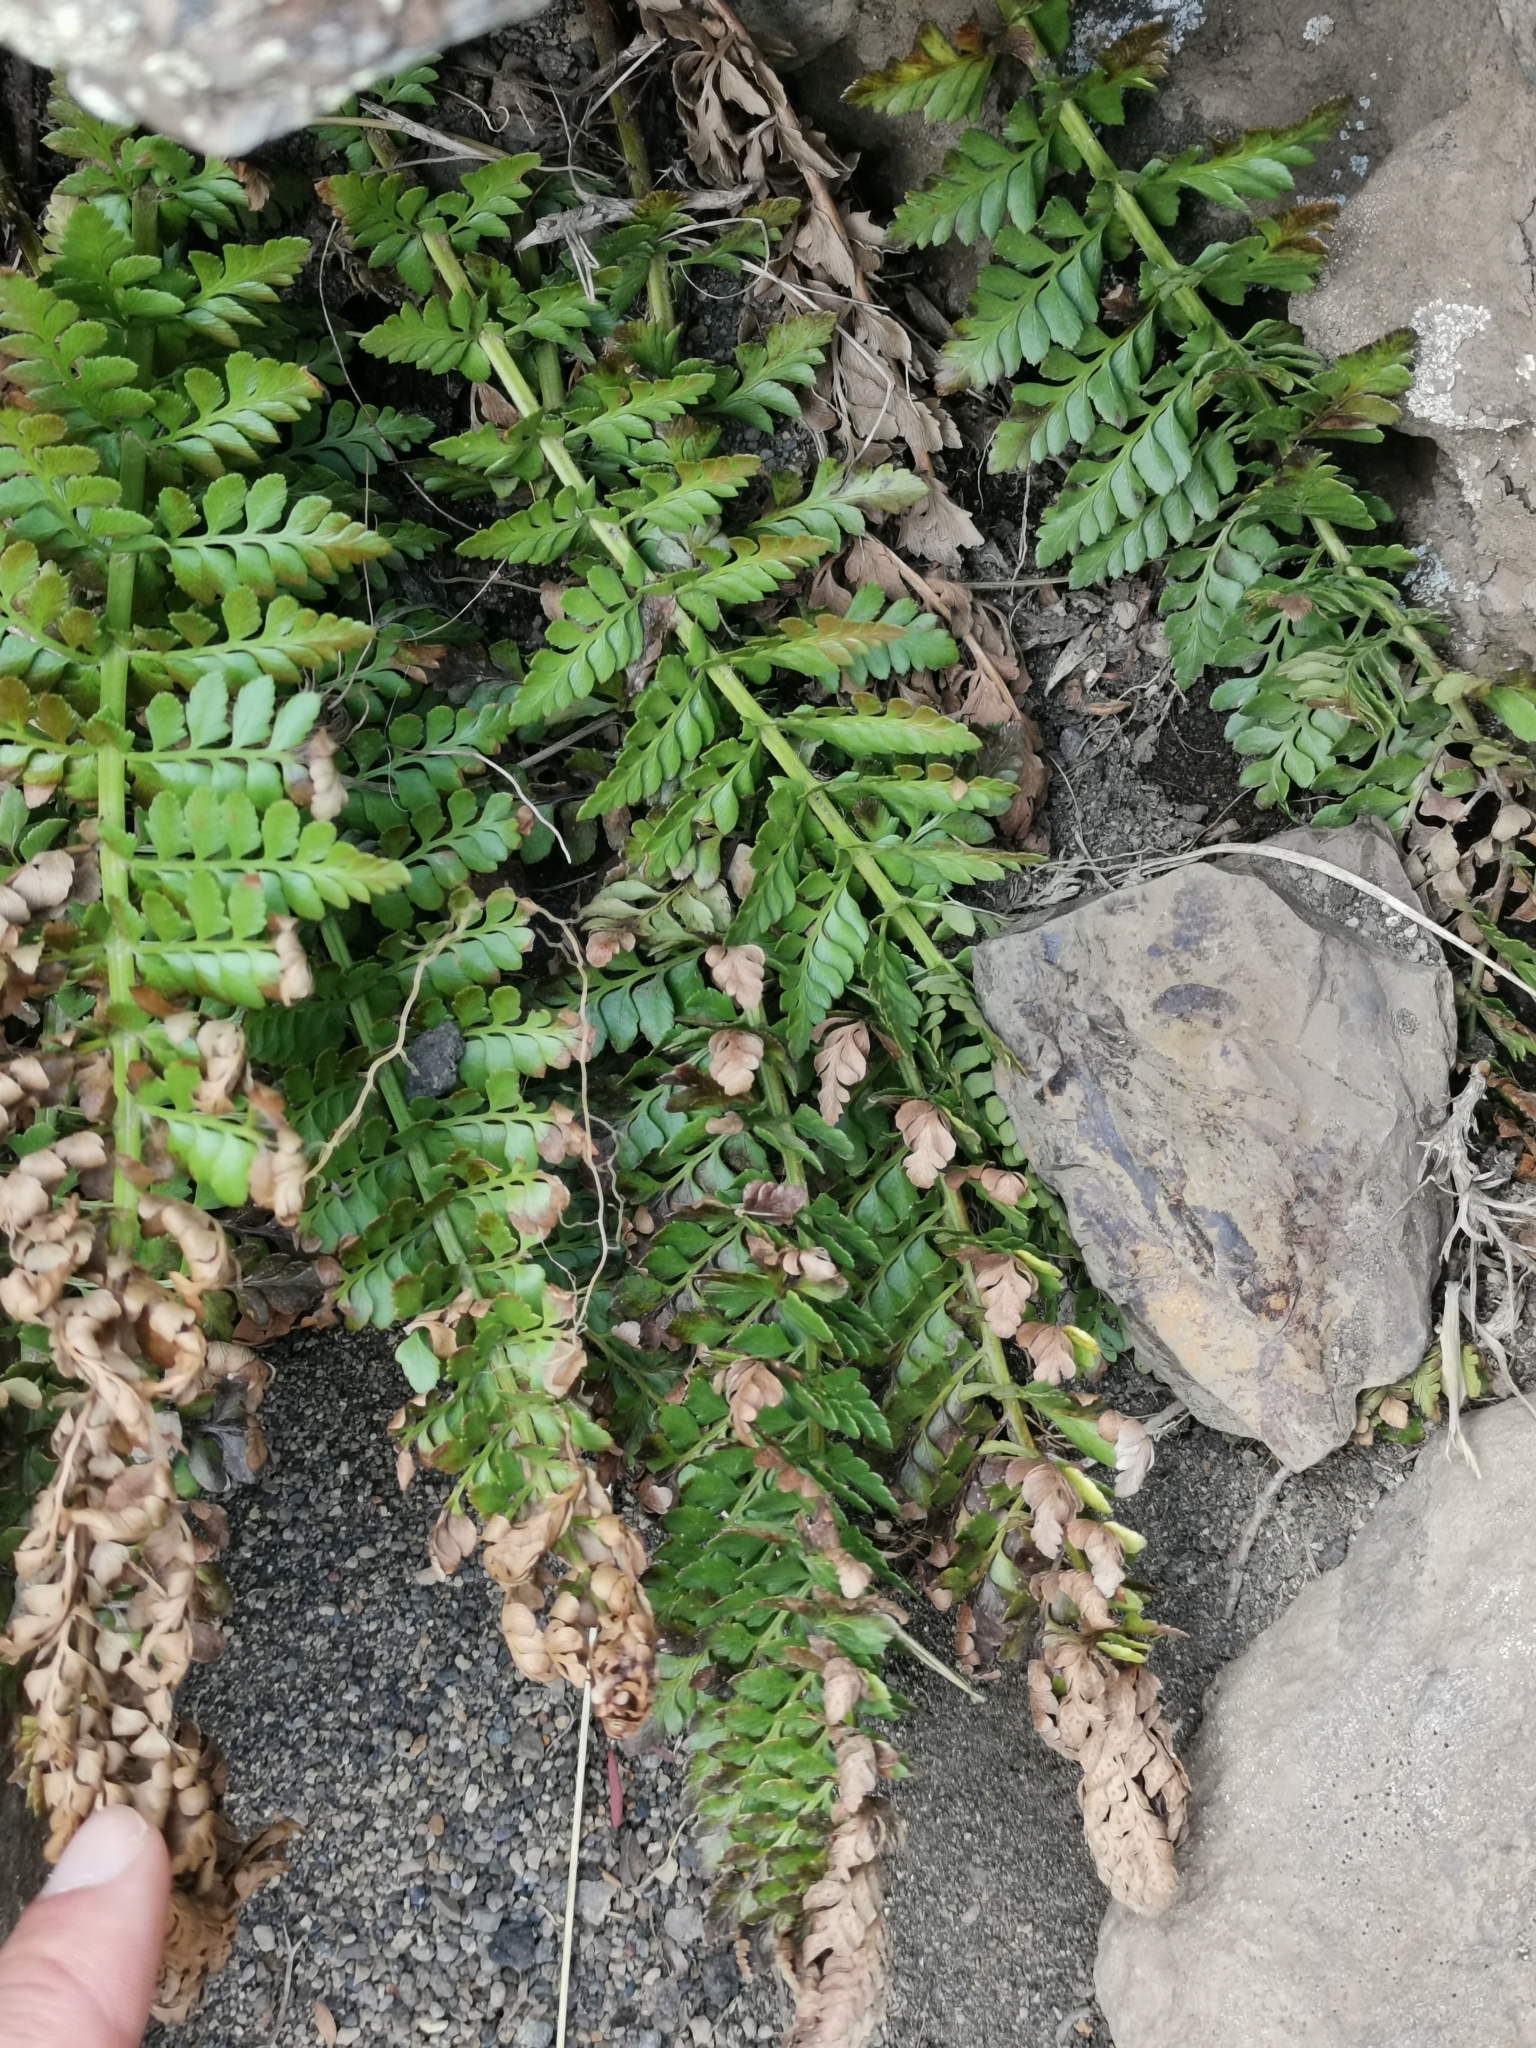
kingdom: Plantae
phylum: Tracheophyta
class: Polypodiopsida
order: Polypodiales
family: Dryopteridaceae
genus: Rumohra
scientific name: Rumohra adiantiformis
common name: Leather fern
